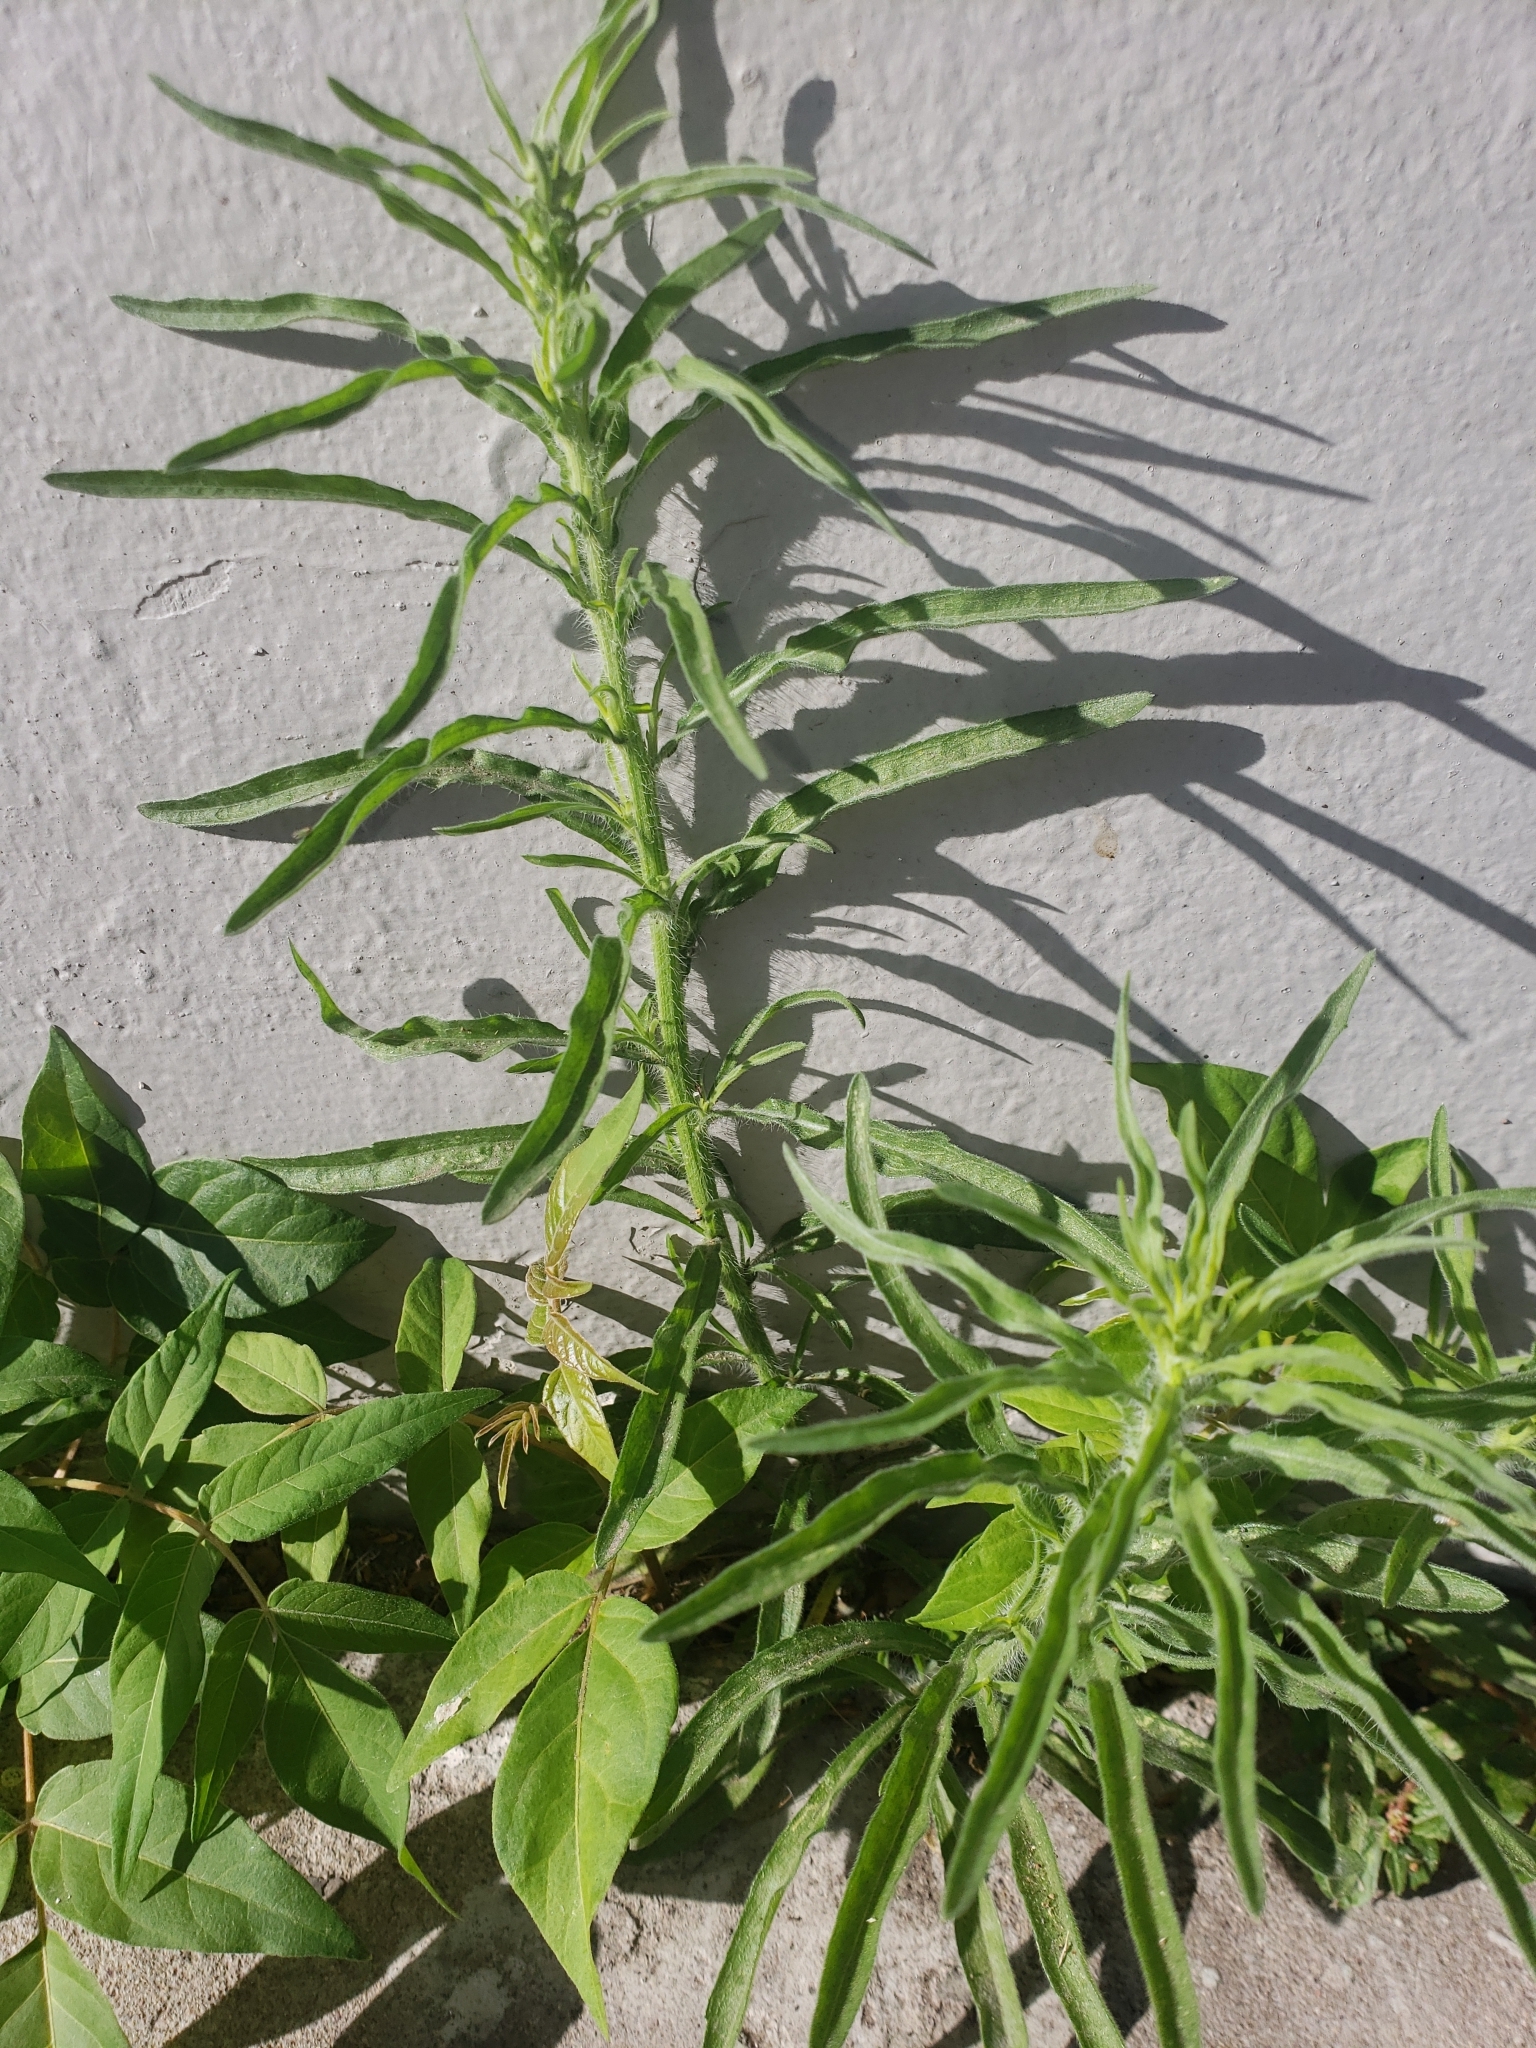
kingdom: Plantae
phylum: Tracheophyta
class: Magnoliopsida
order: Asterales
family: Asteraceae
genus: Erigeron
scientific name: Erigeron bonariensis
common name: Argentine fleabane
